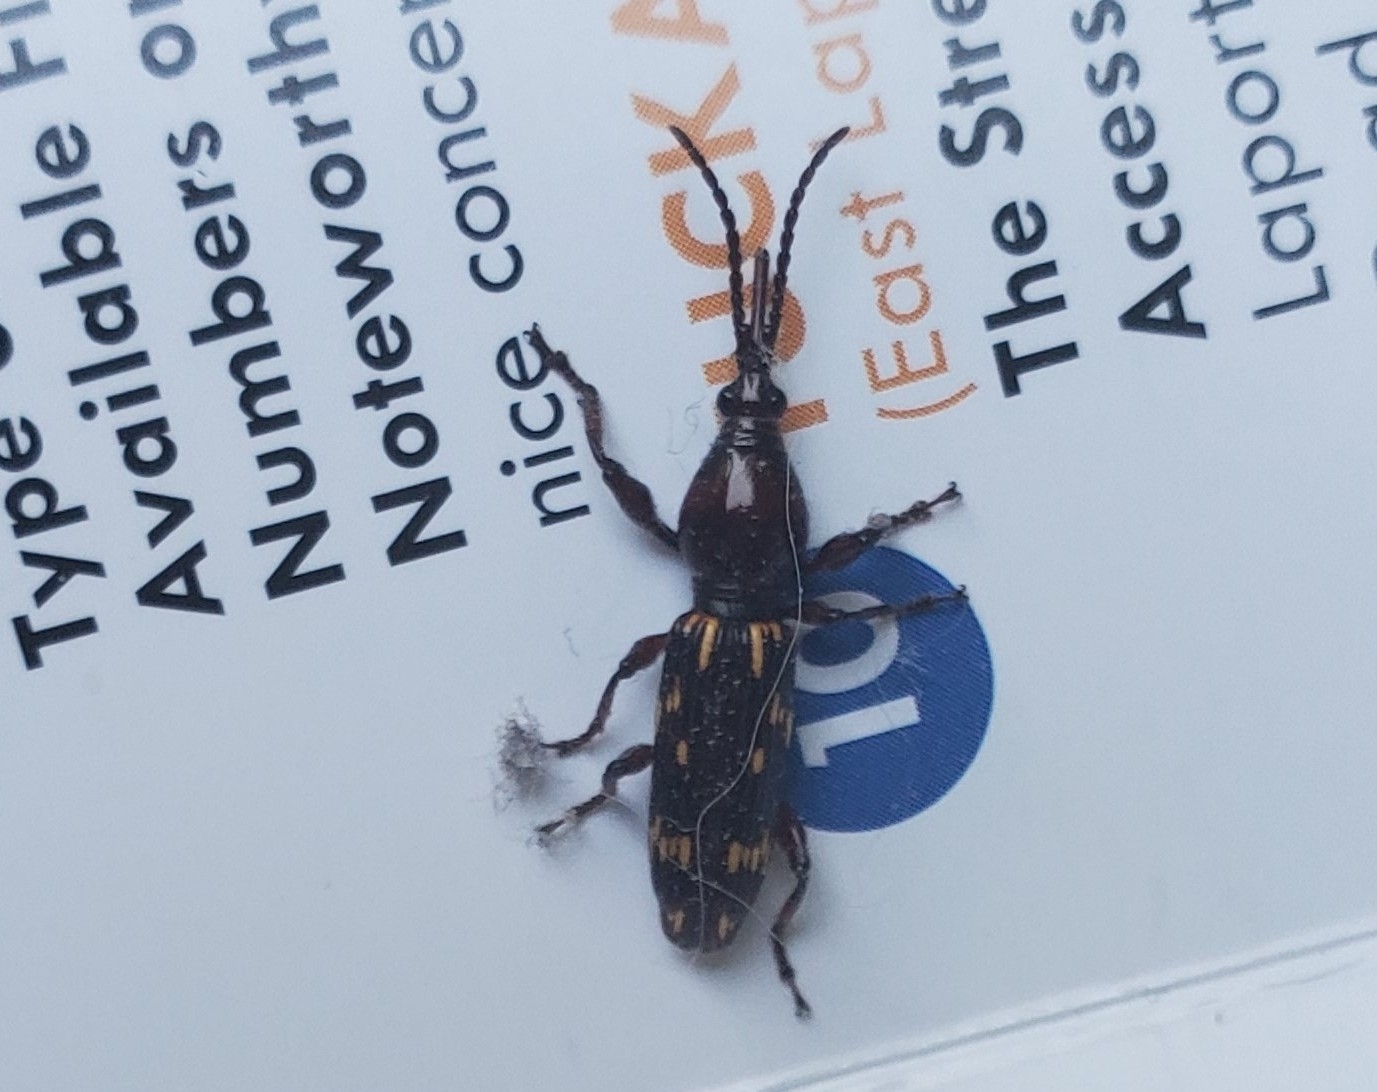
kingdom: Animalia
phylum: Arthropoda
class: Insecta
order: Coleoptera
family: Brentidae
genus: Arrenodes
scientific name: Arrenodes minutus
